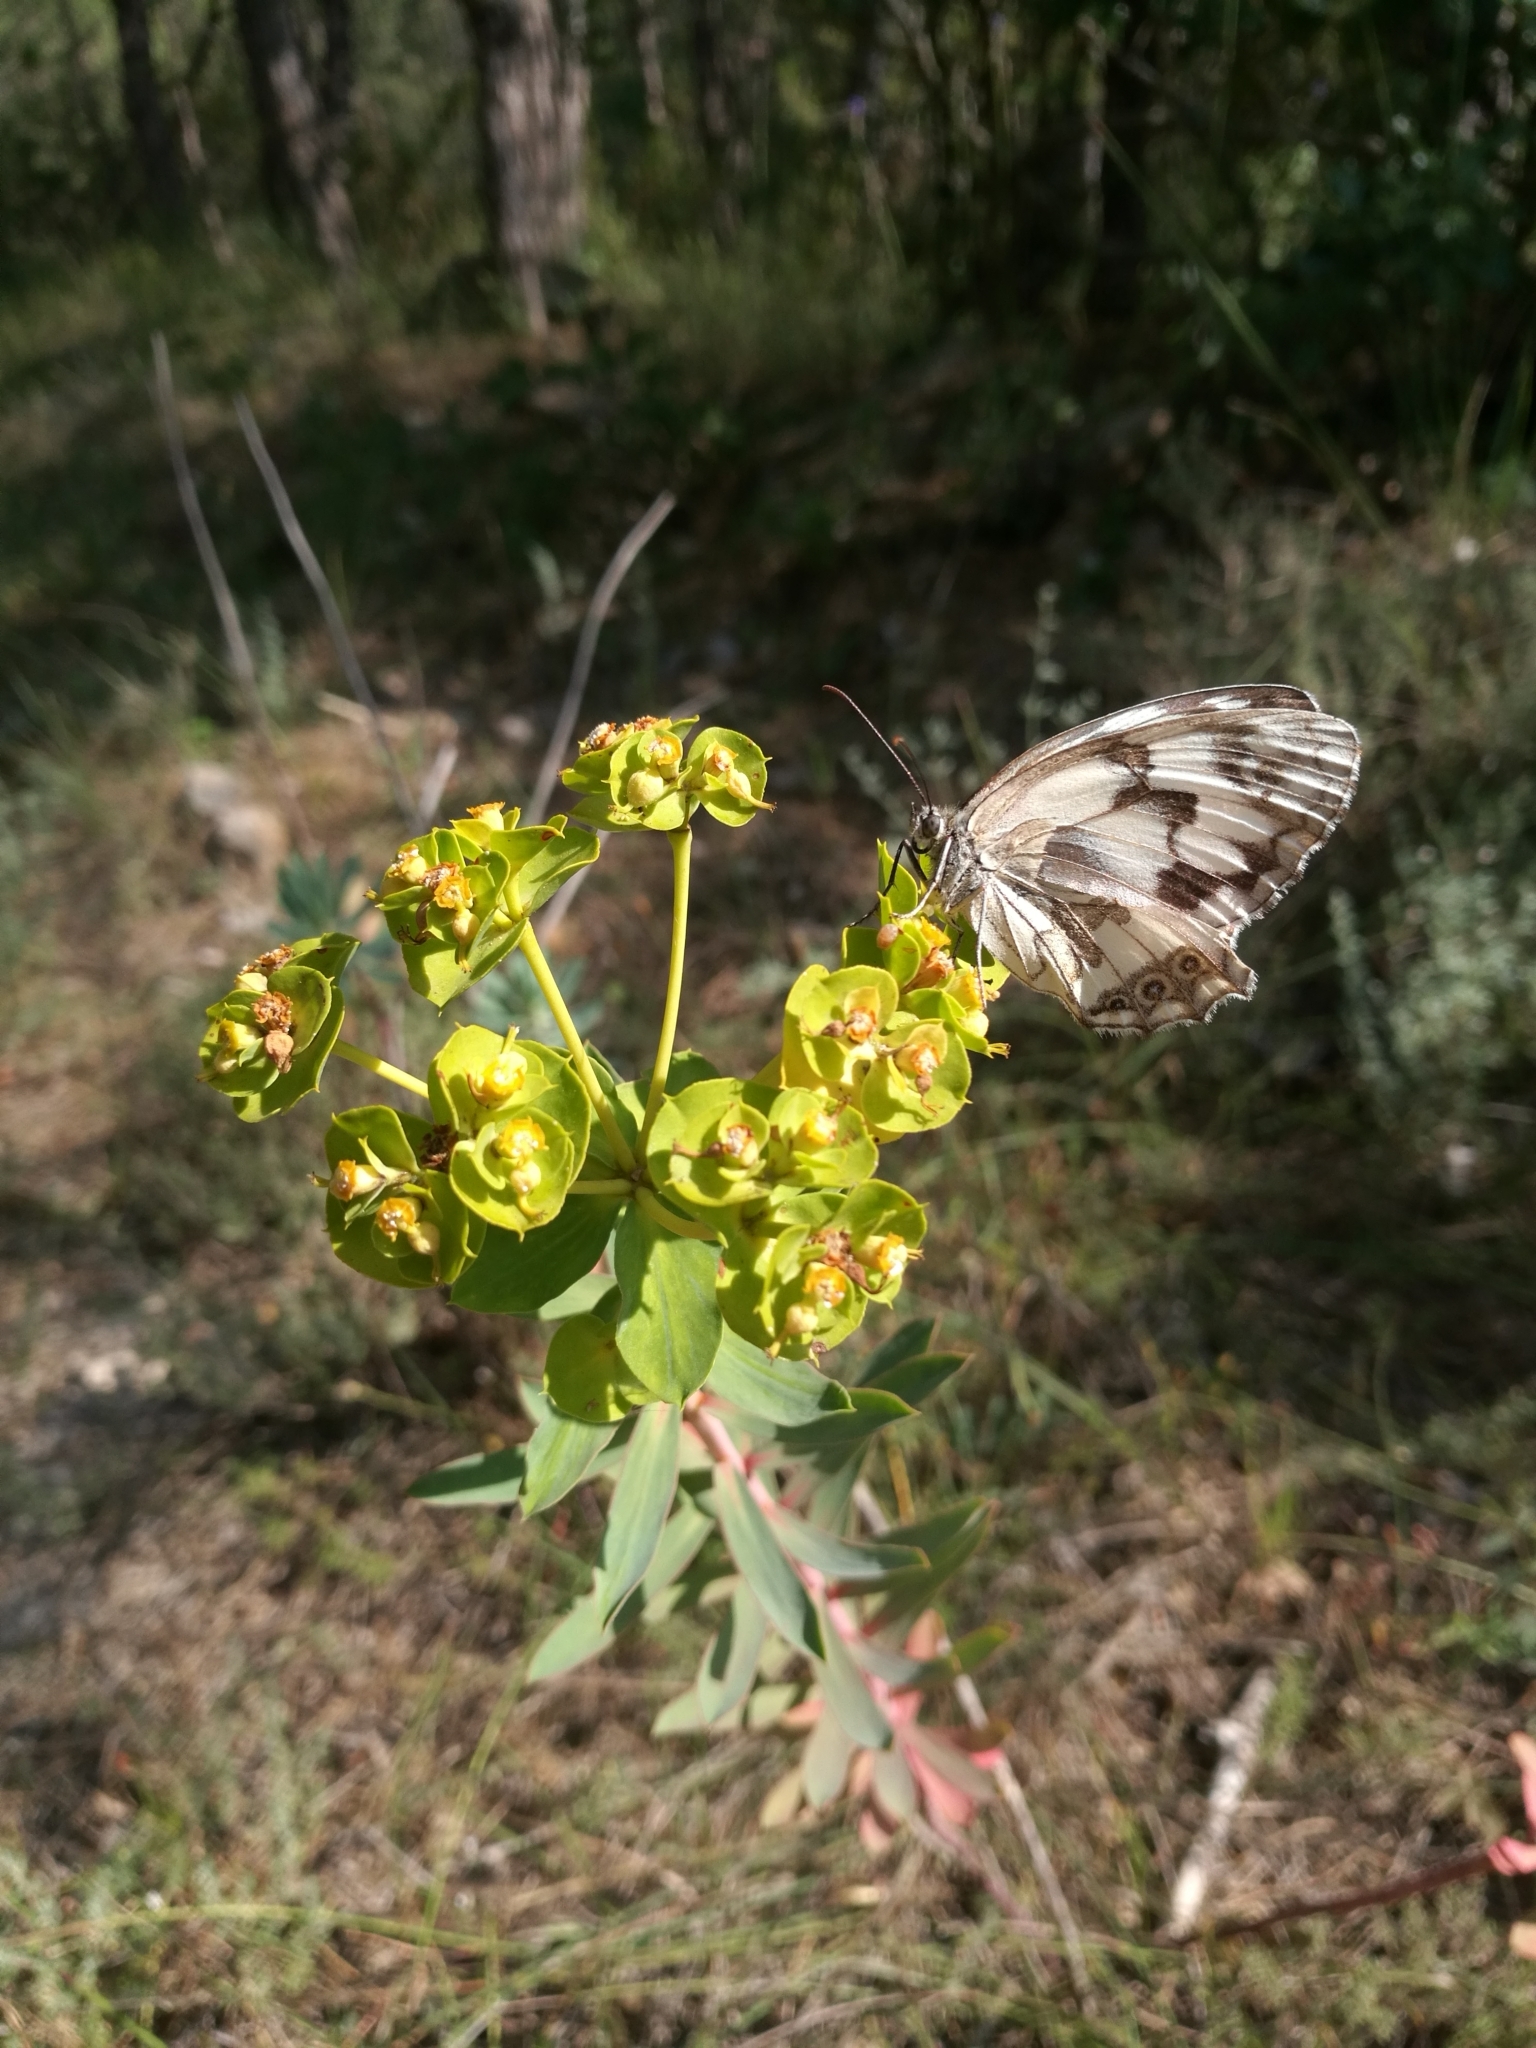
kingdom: Animalia
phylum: Arthropoda
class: Insecta
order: Lepidoptera
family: Nymphalidae
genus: Melanargia
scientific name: Melanargia lachesis
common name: Iberian marbled white
